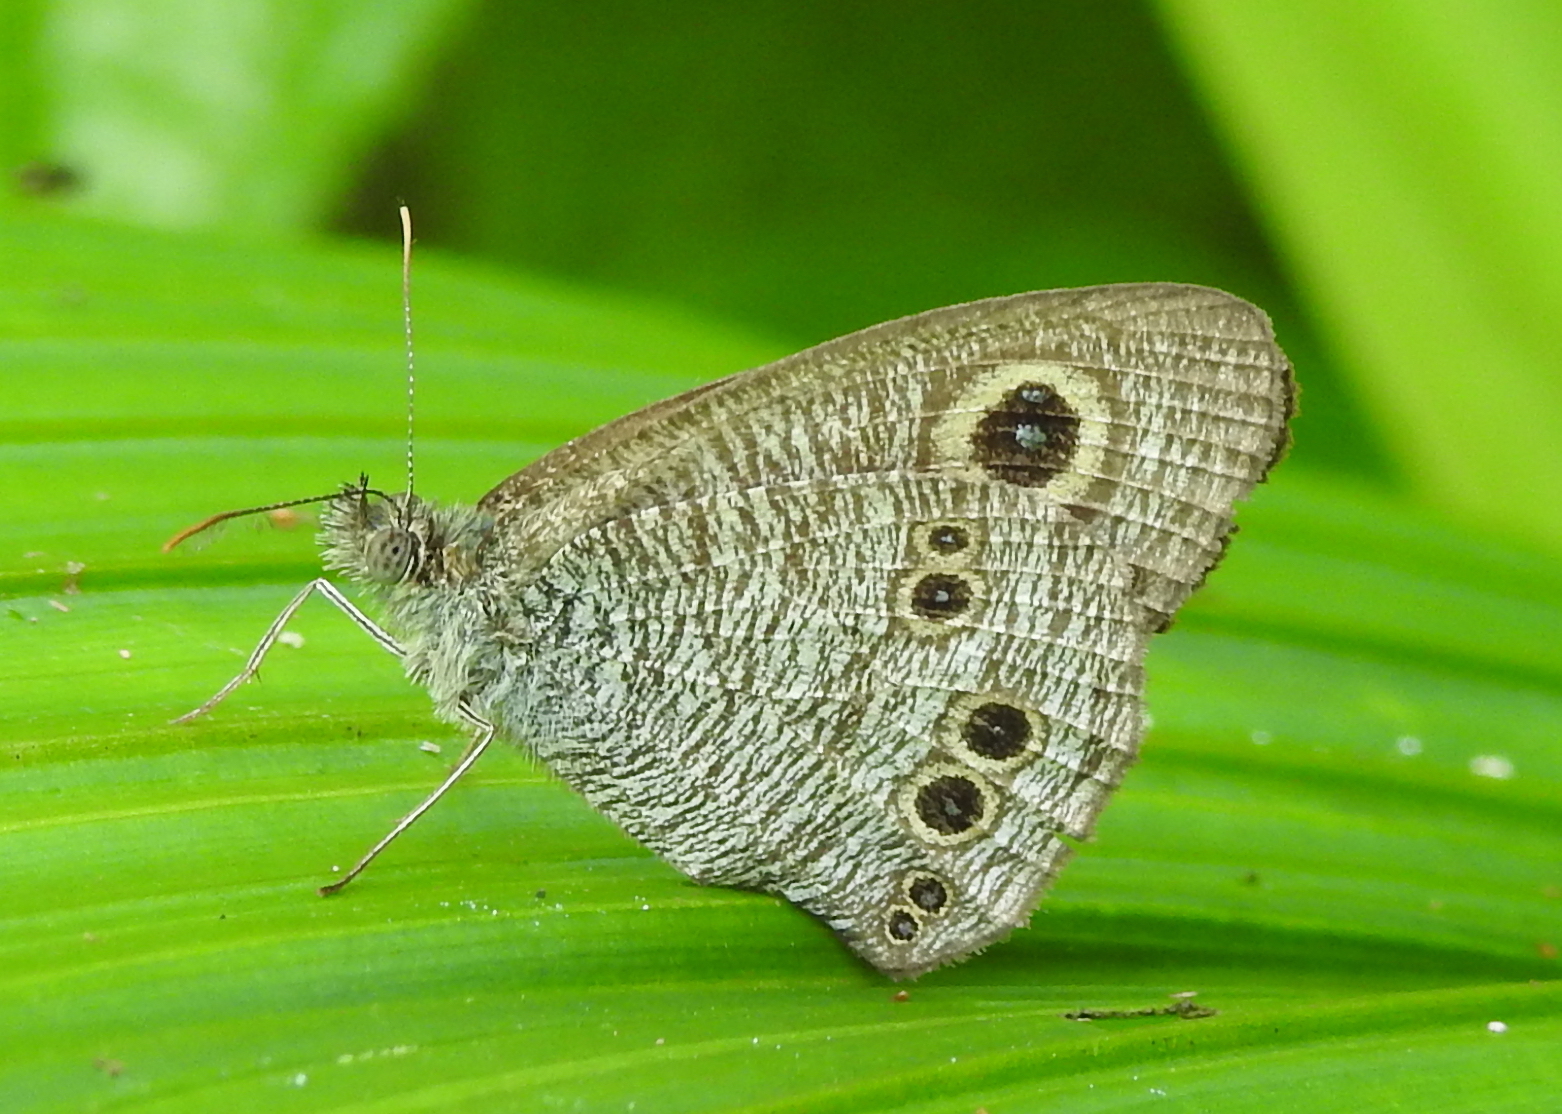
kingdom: Animalia
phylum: Arthropoda
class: Insecta
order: Lepidoptera
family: Nymphalidae
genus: Ypthima
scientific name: Ypthima baldus
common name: Common five-ring
